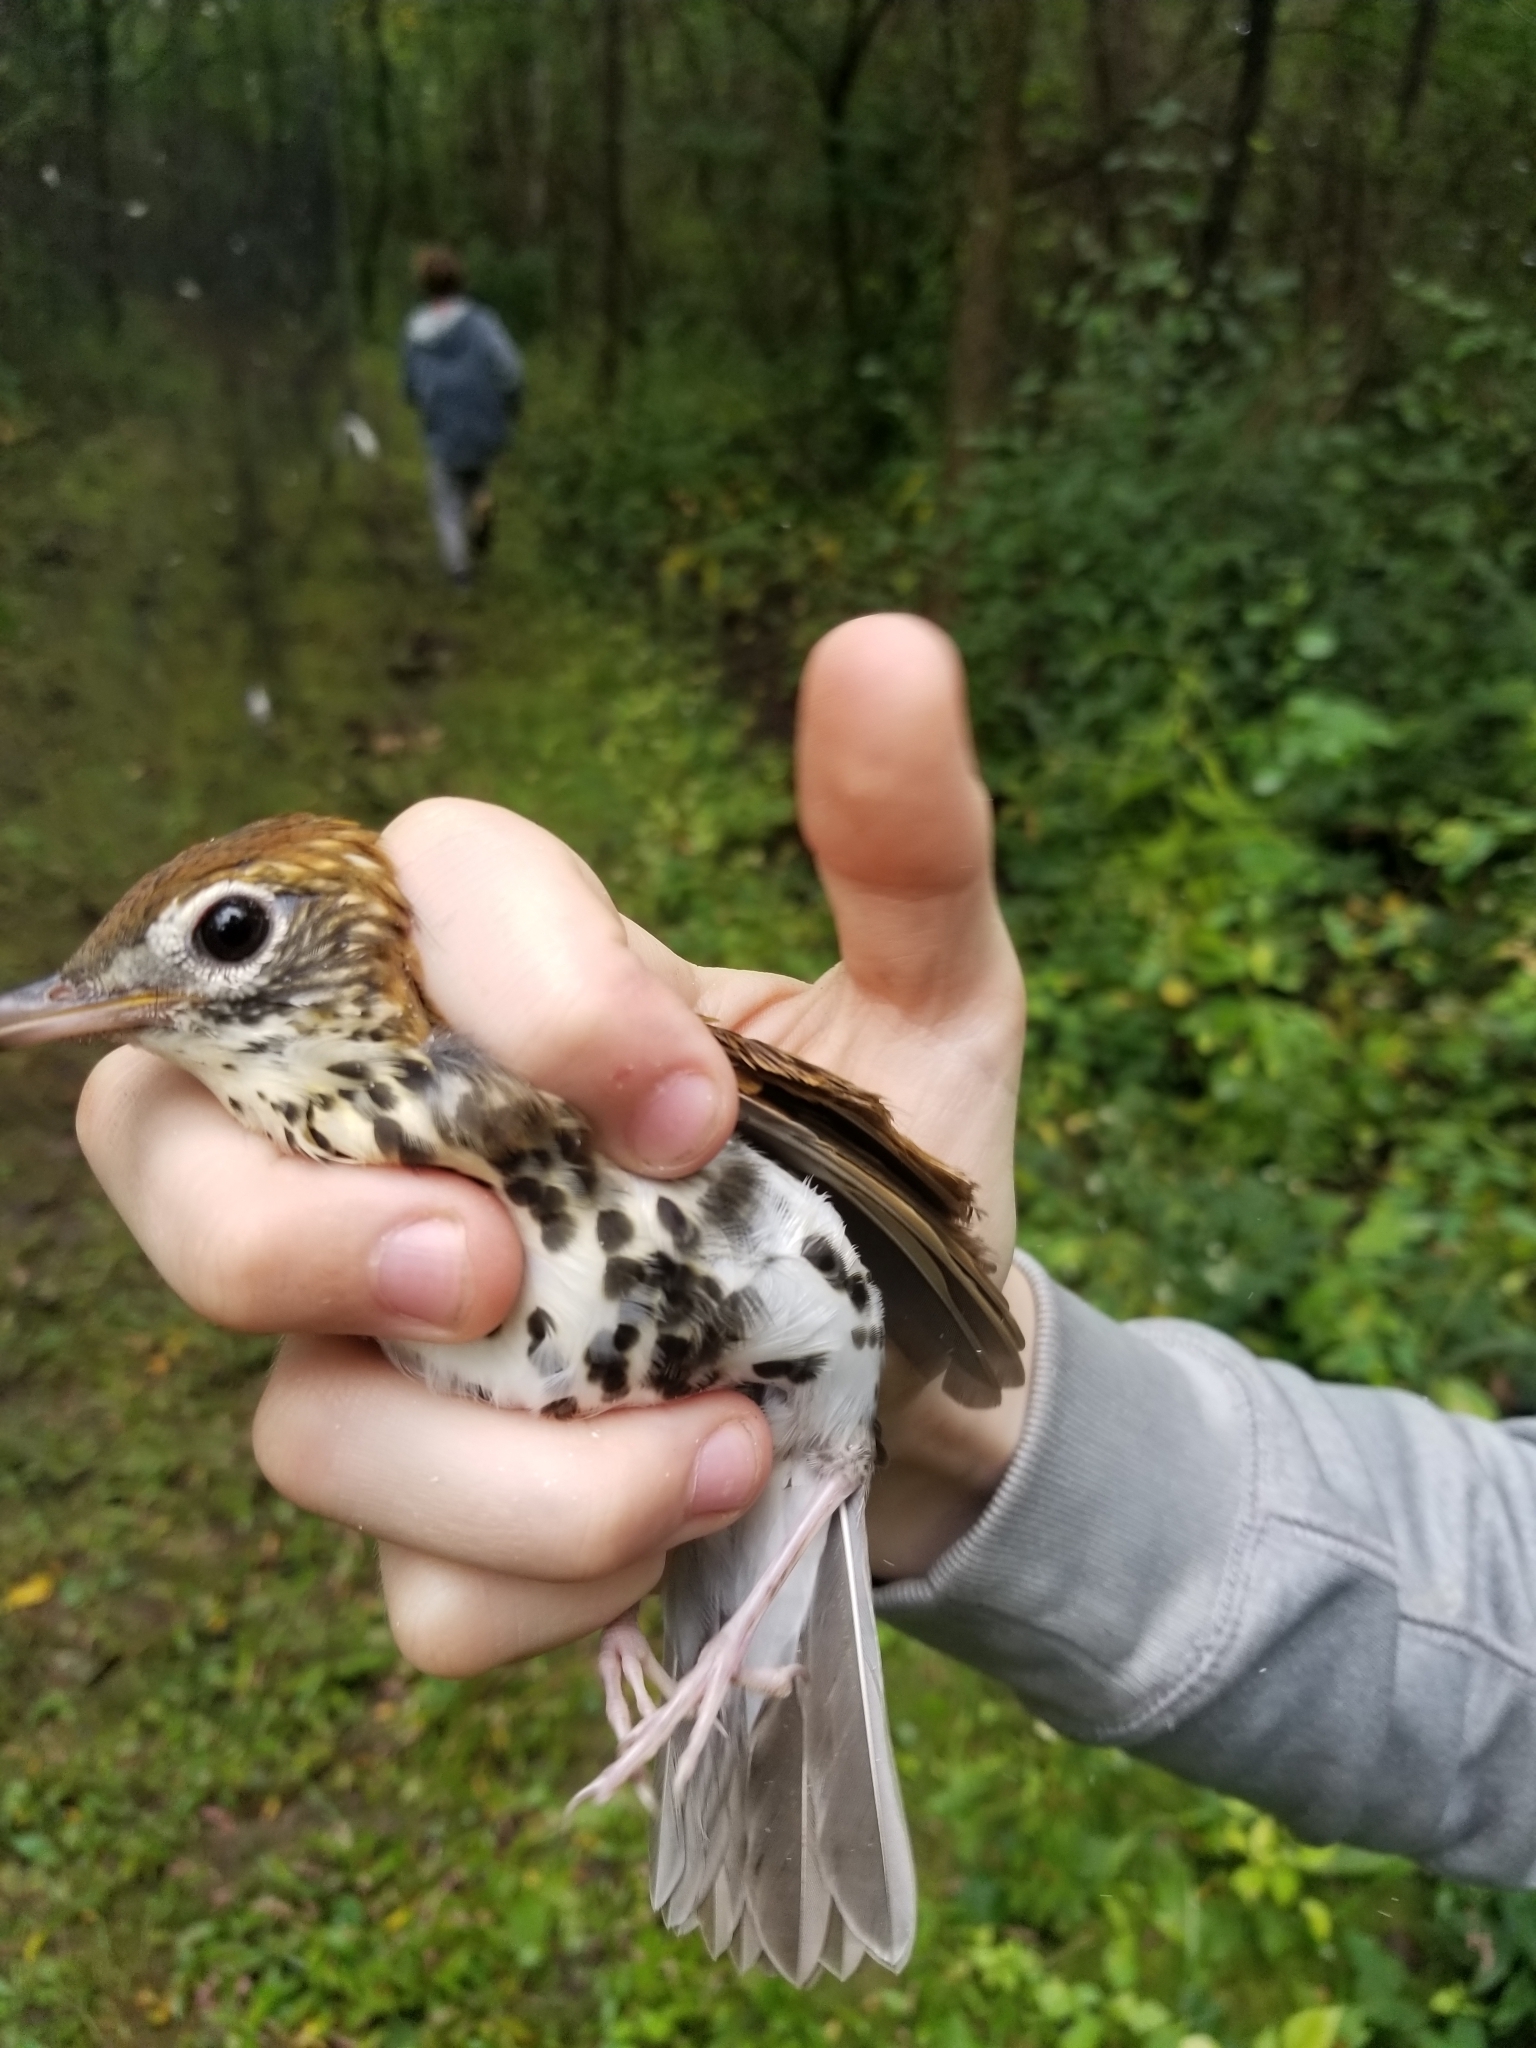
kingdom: Animalia
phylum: Chordata
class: Aves
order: Passeriformes
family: Turdidae
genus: Hylocichla
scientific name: Hylocichla mustelina
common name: Wood thrush
